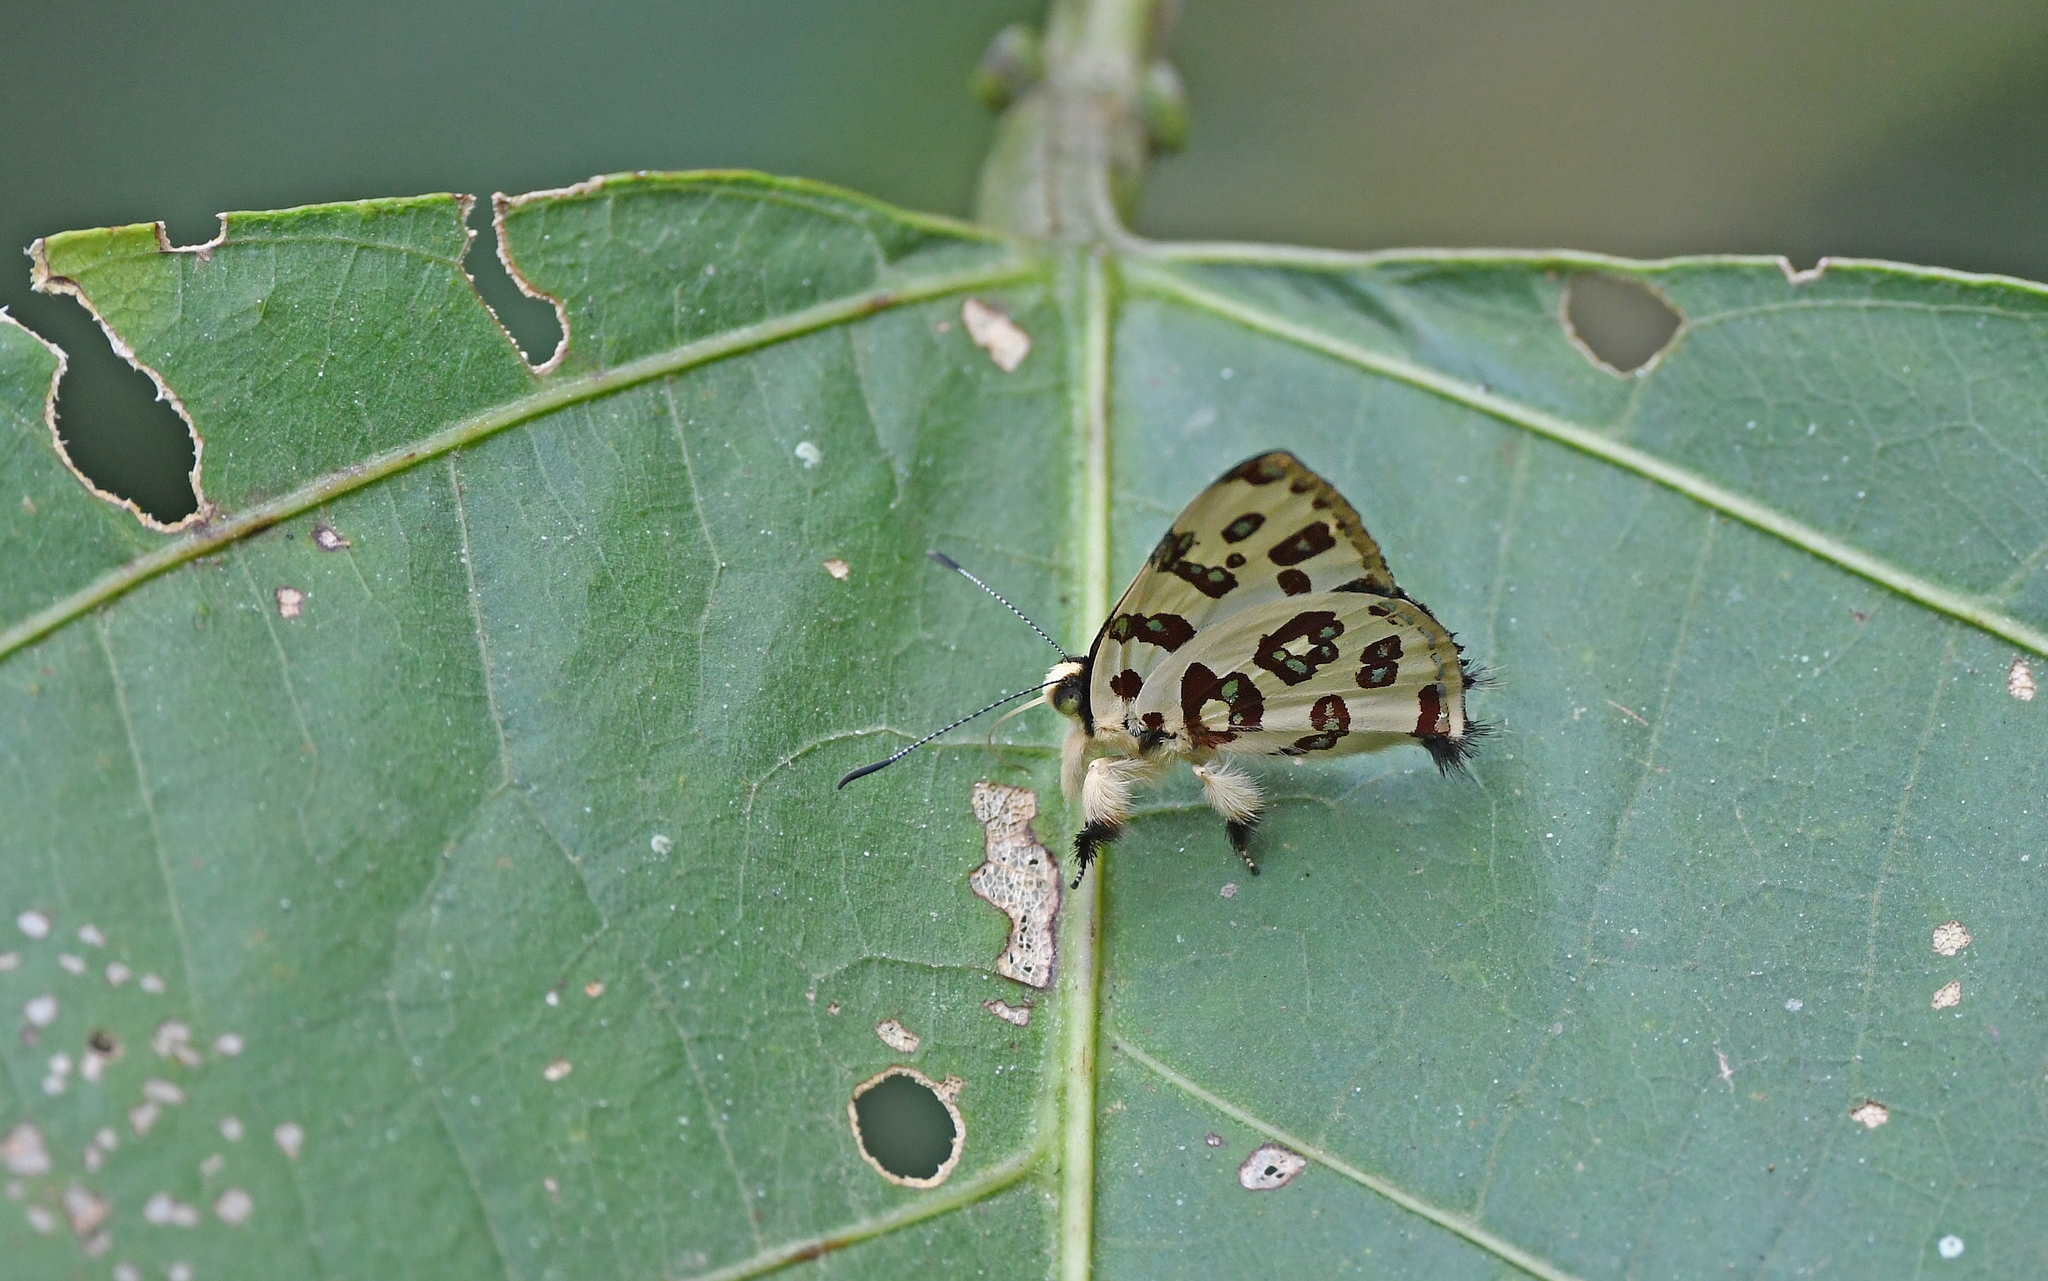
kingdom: Animalia
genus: Anteros
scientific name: Anteros bracteatus
